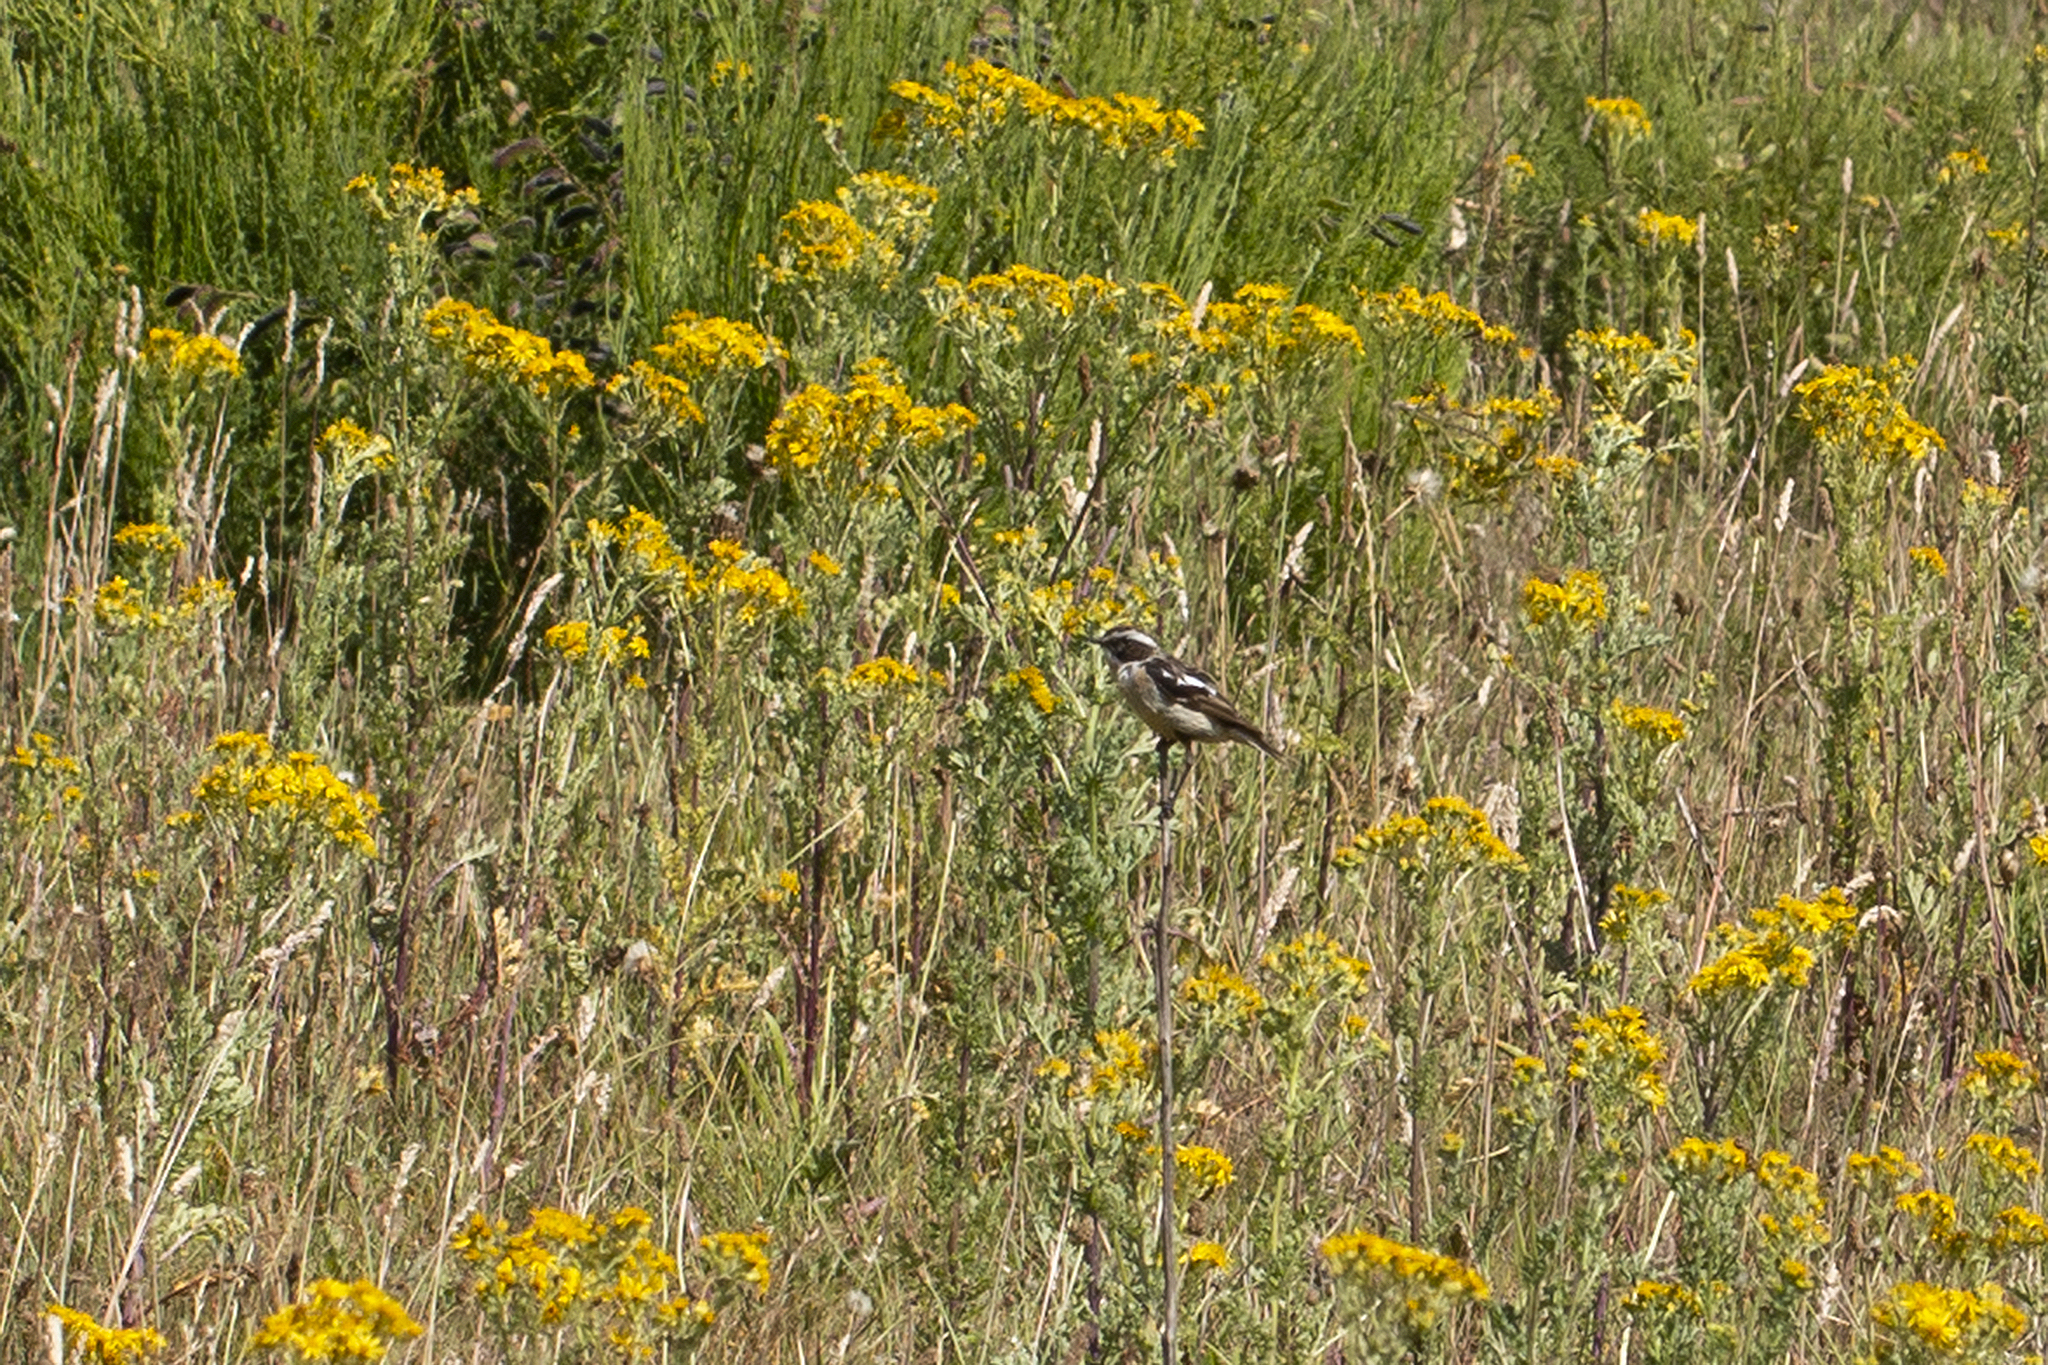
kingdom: Animalia
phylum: Chordata
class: Aves
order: Passeriformes
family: Muscicapidae
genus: Saxicola
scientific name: Saxicola rubetra
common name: Whinchat
